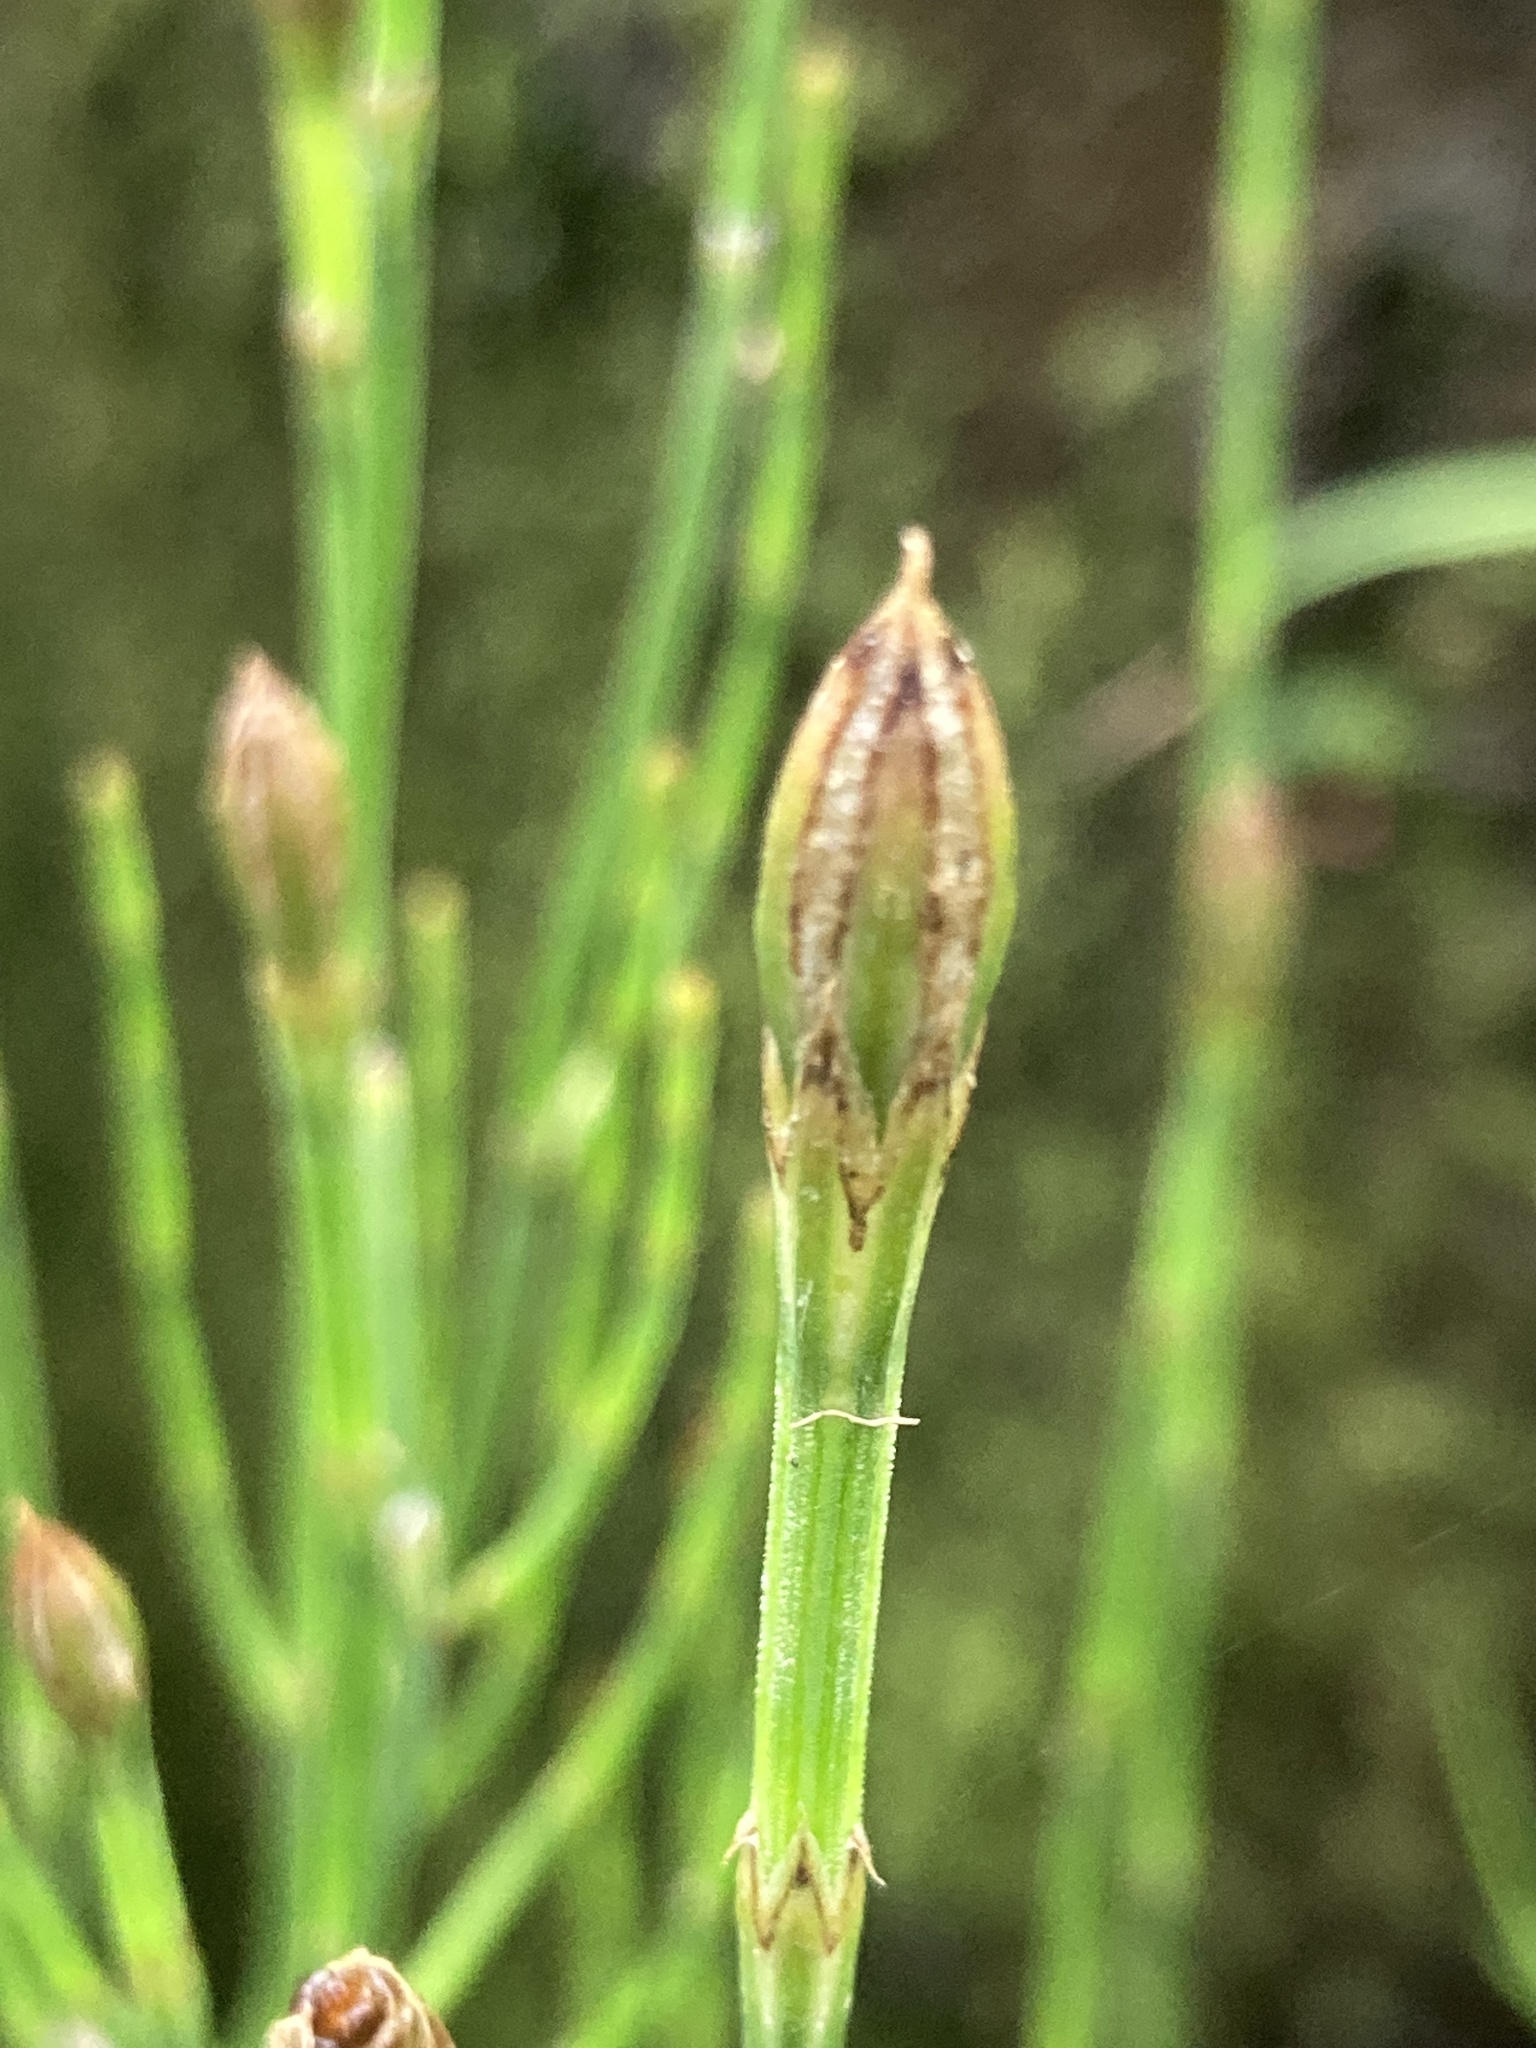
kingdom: Plantae
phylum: Tracheophyta
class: Polypodiopsida
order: Equisetales
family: Equisetaceae
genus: Equisetum
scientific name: Equisetum bogotense
